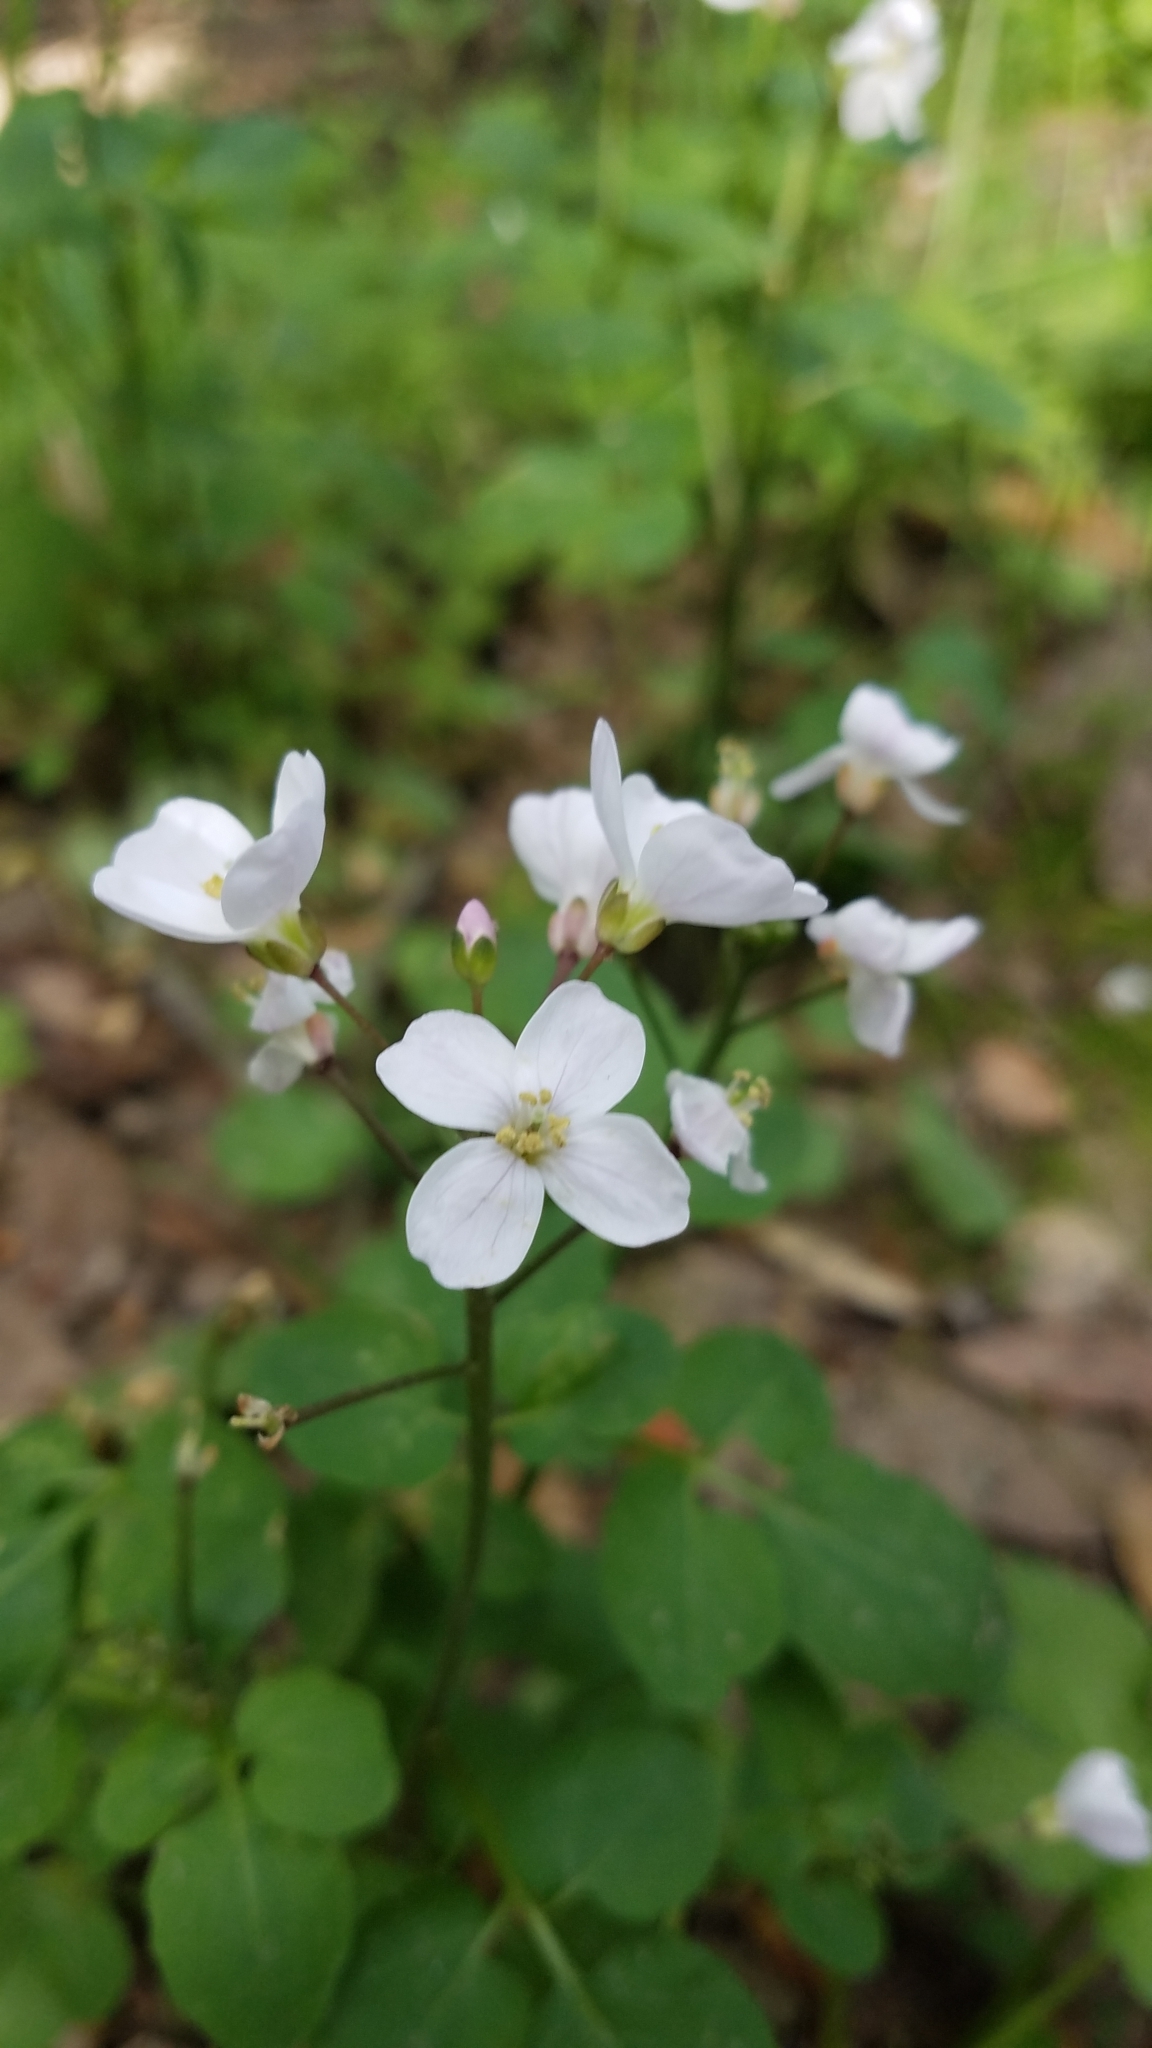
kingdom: Plantae
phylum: Tracheophyta
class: Magnoliopsida
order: Brassicales
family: Brassicaceae
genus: Cardamine
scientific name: Cardamine californica
